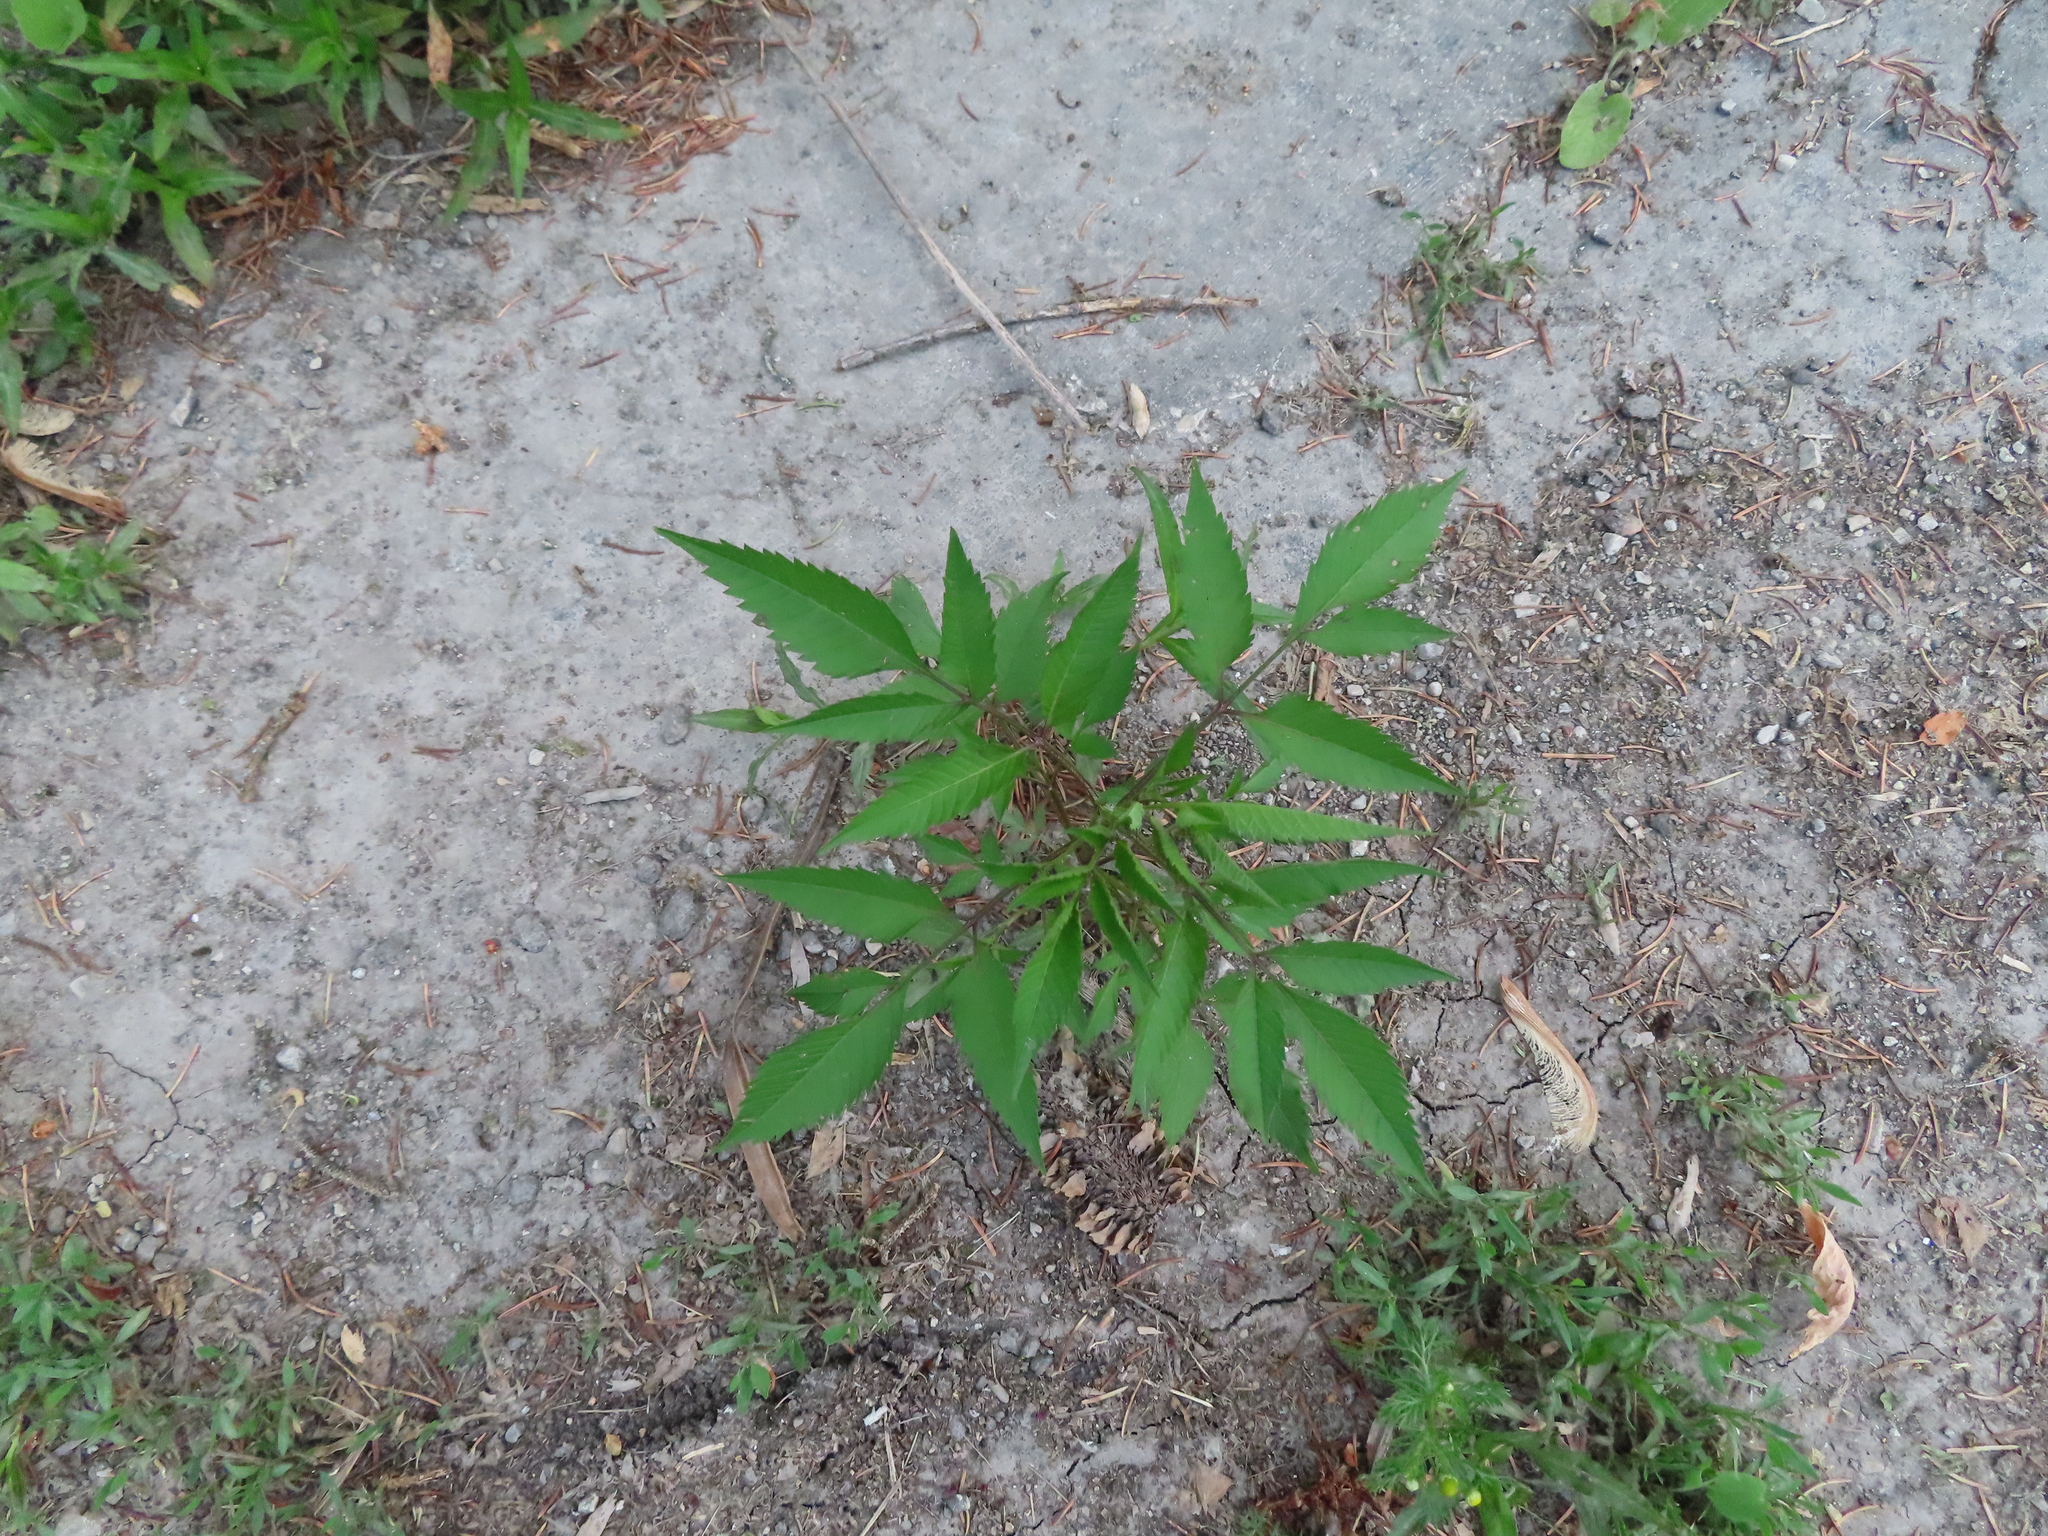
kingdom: Plantae
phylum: Tracheophyta
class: Magnoliopsida
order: Asterales
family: Asteraceae
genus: Bidens
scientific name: Bidens frondosa
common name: Beggarticks
